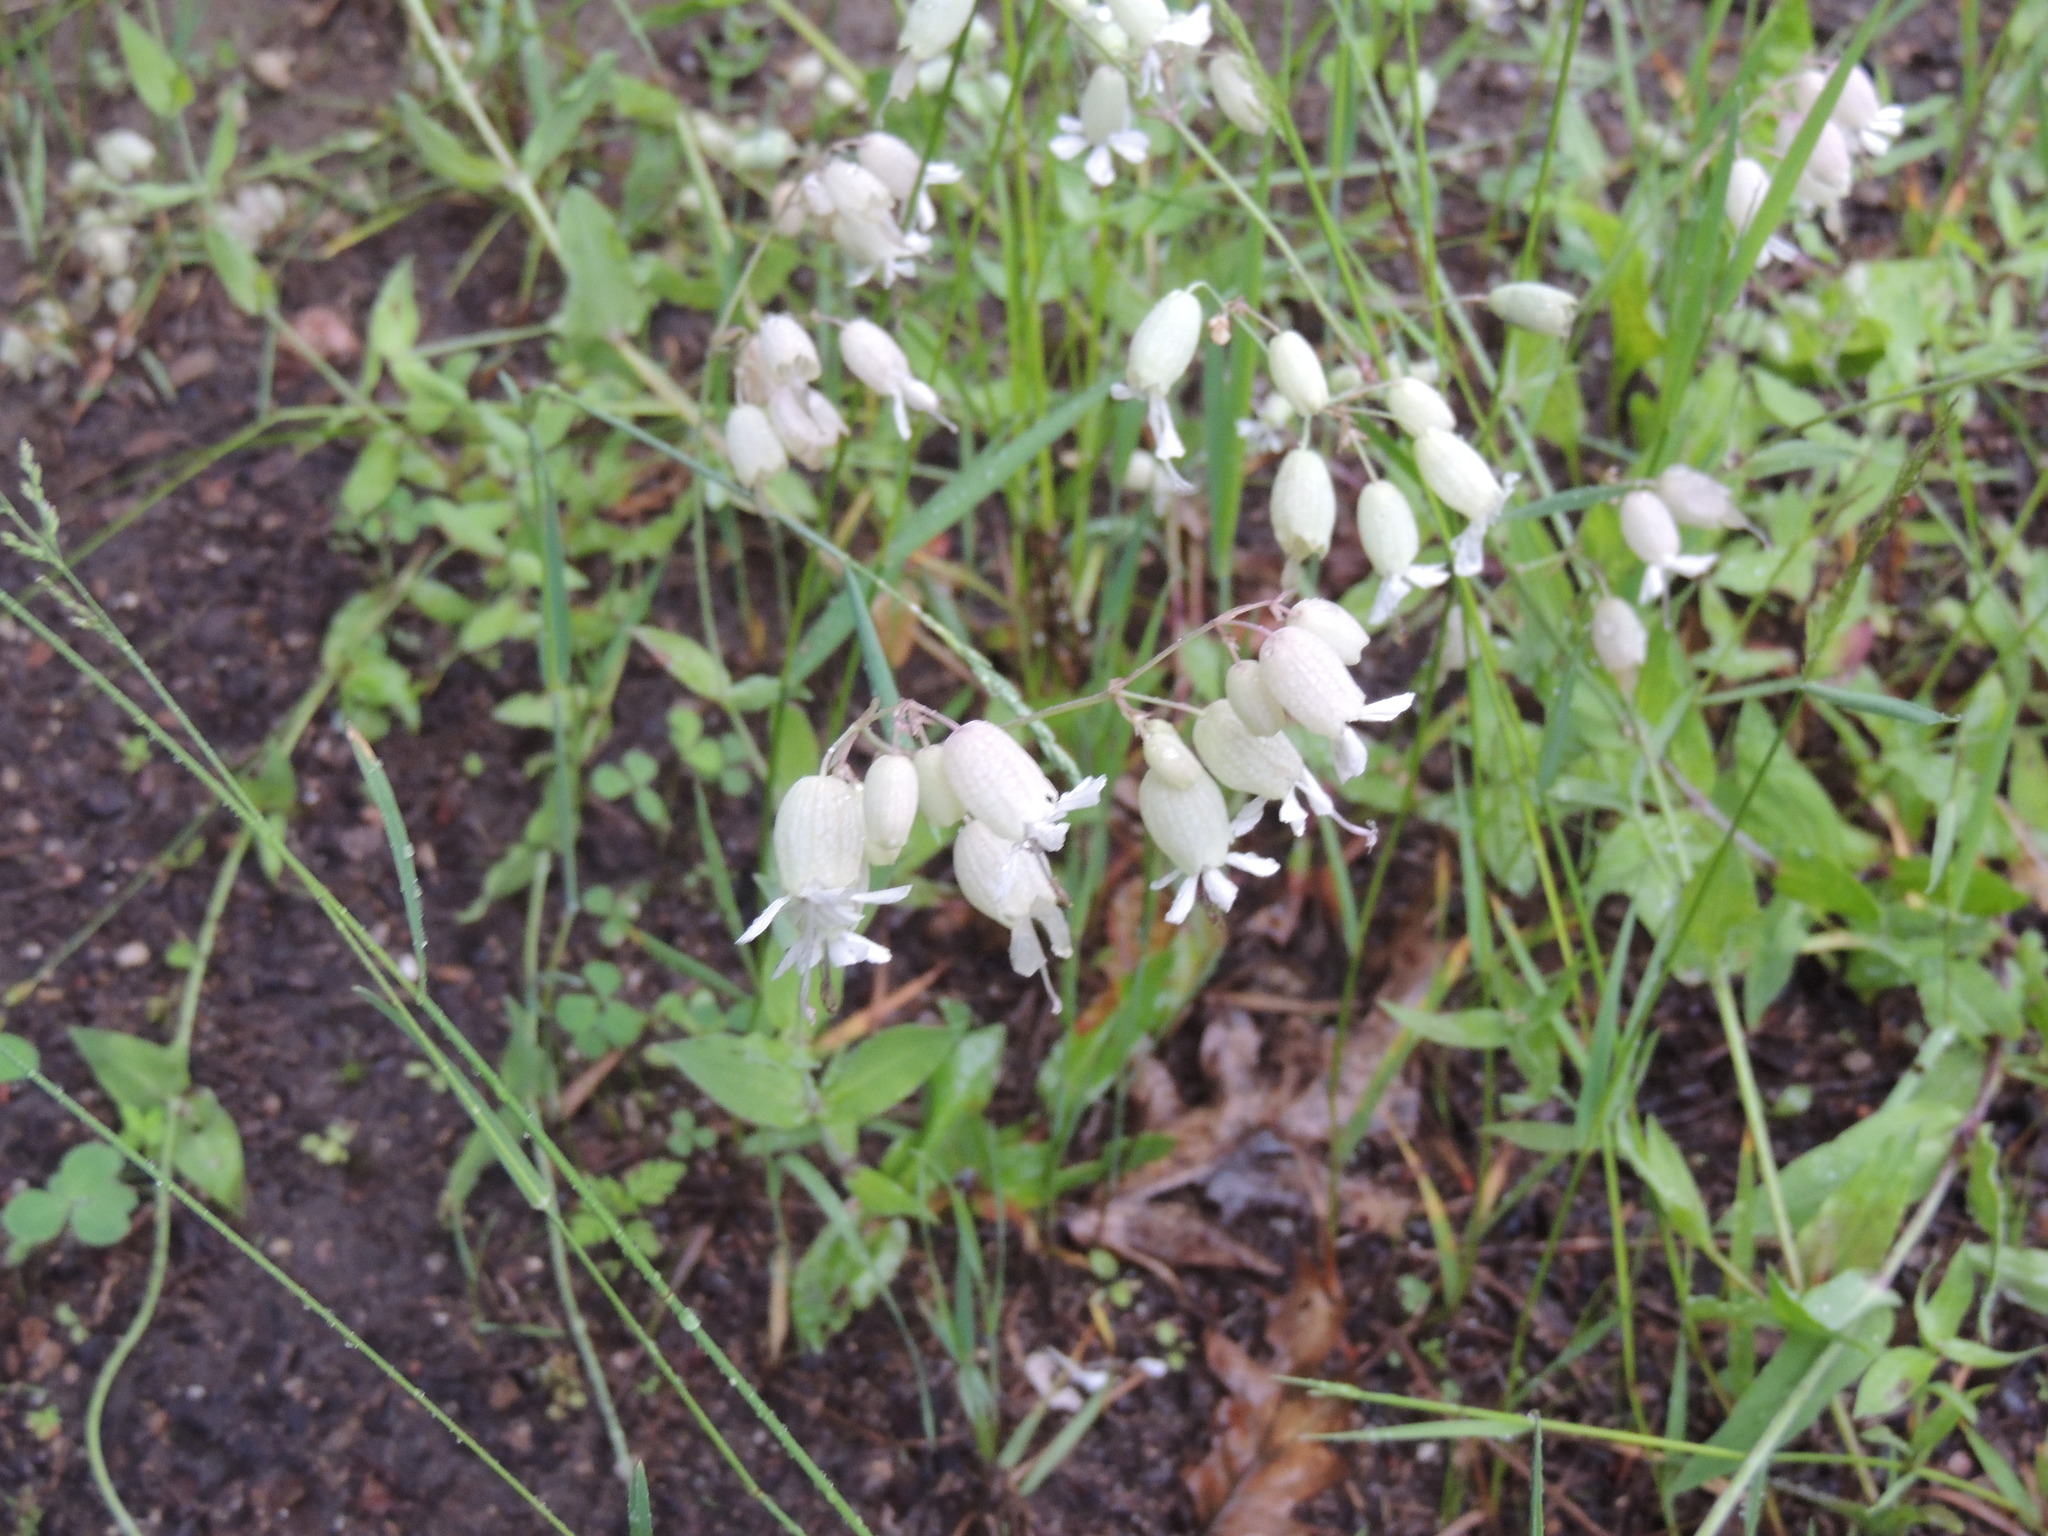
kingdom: Plantae
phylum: Tracheophyta
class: Magnoliopsida
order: Caryophyllales
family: Caryophyllaceae
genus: Silene
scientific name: Silene vulgaris
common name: Bladder campion
